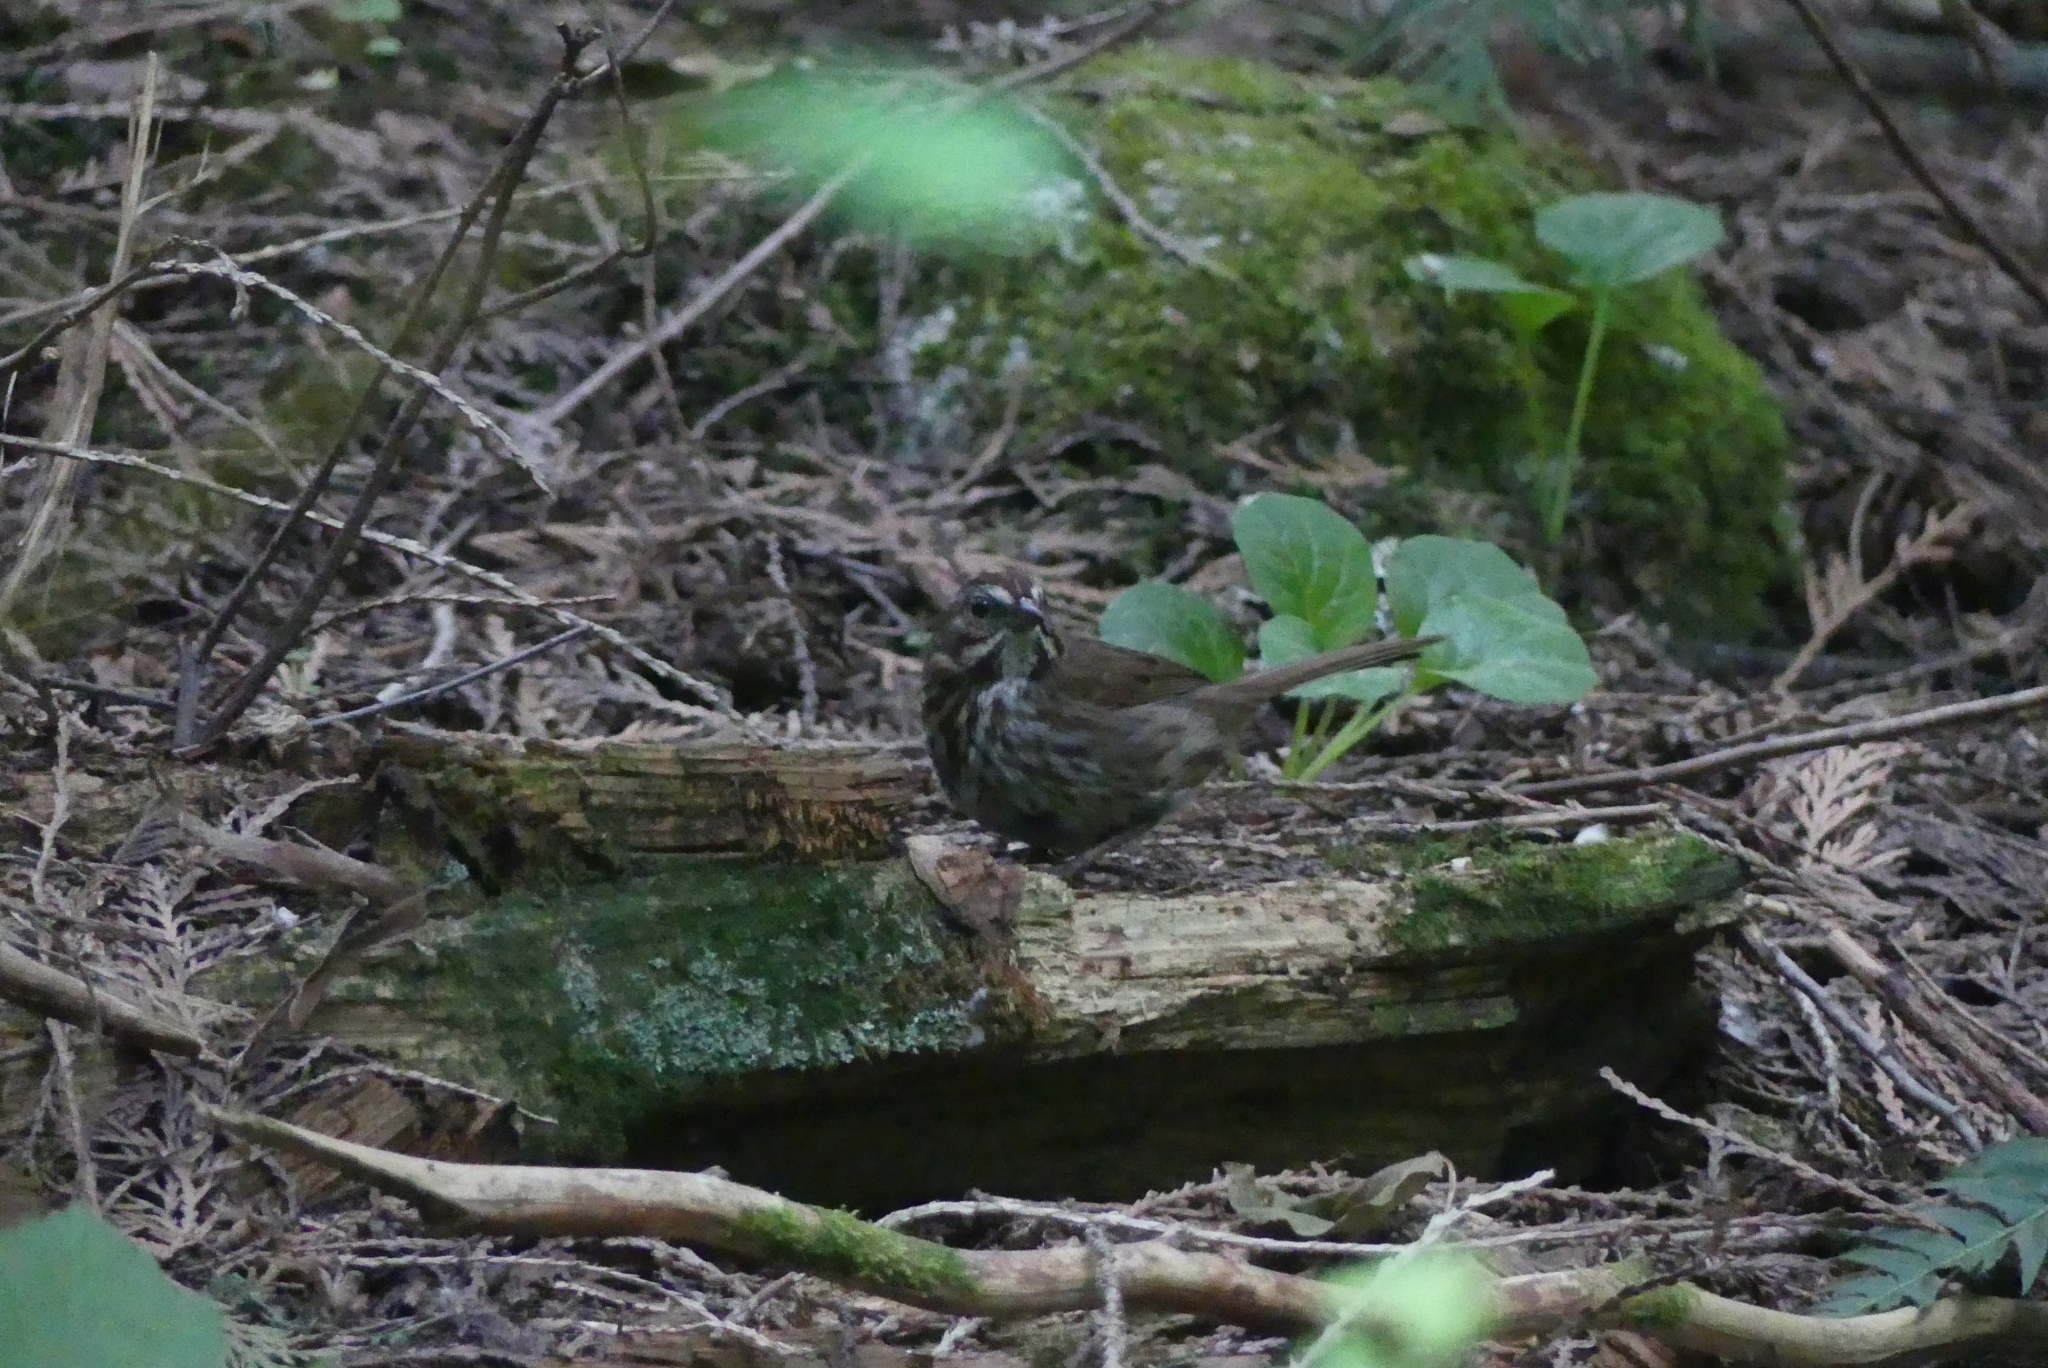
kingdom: Animalia
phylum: Chordata
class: Aves
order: Passeriformes
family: Passerellidae
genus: Melospiza
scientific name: Melospiza melodia
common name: Song sparrow
